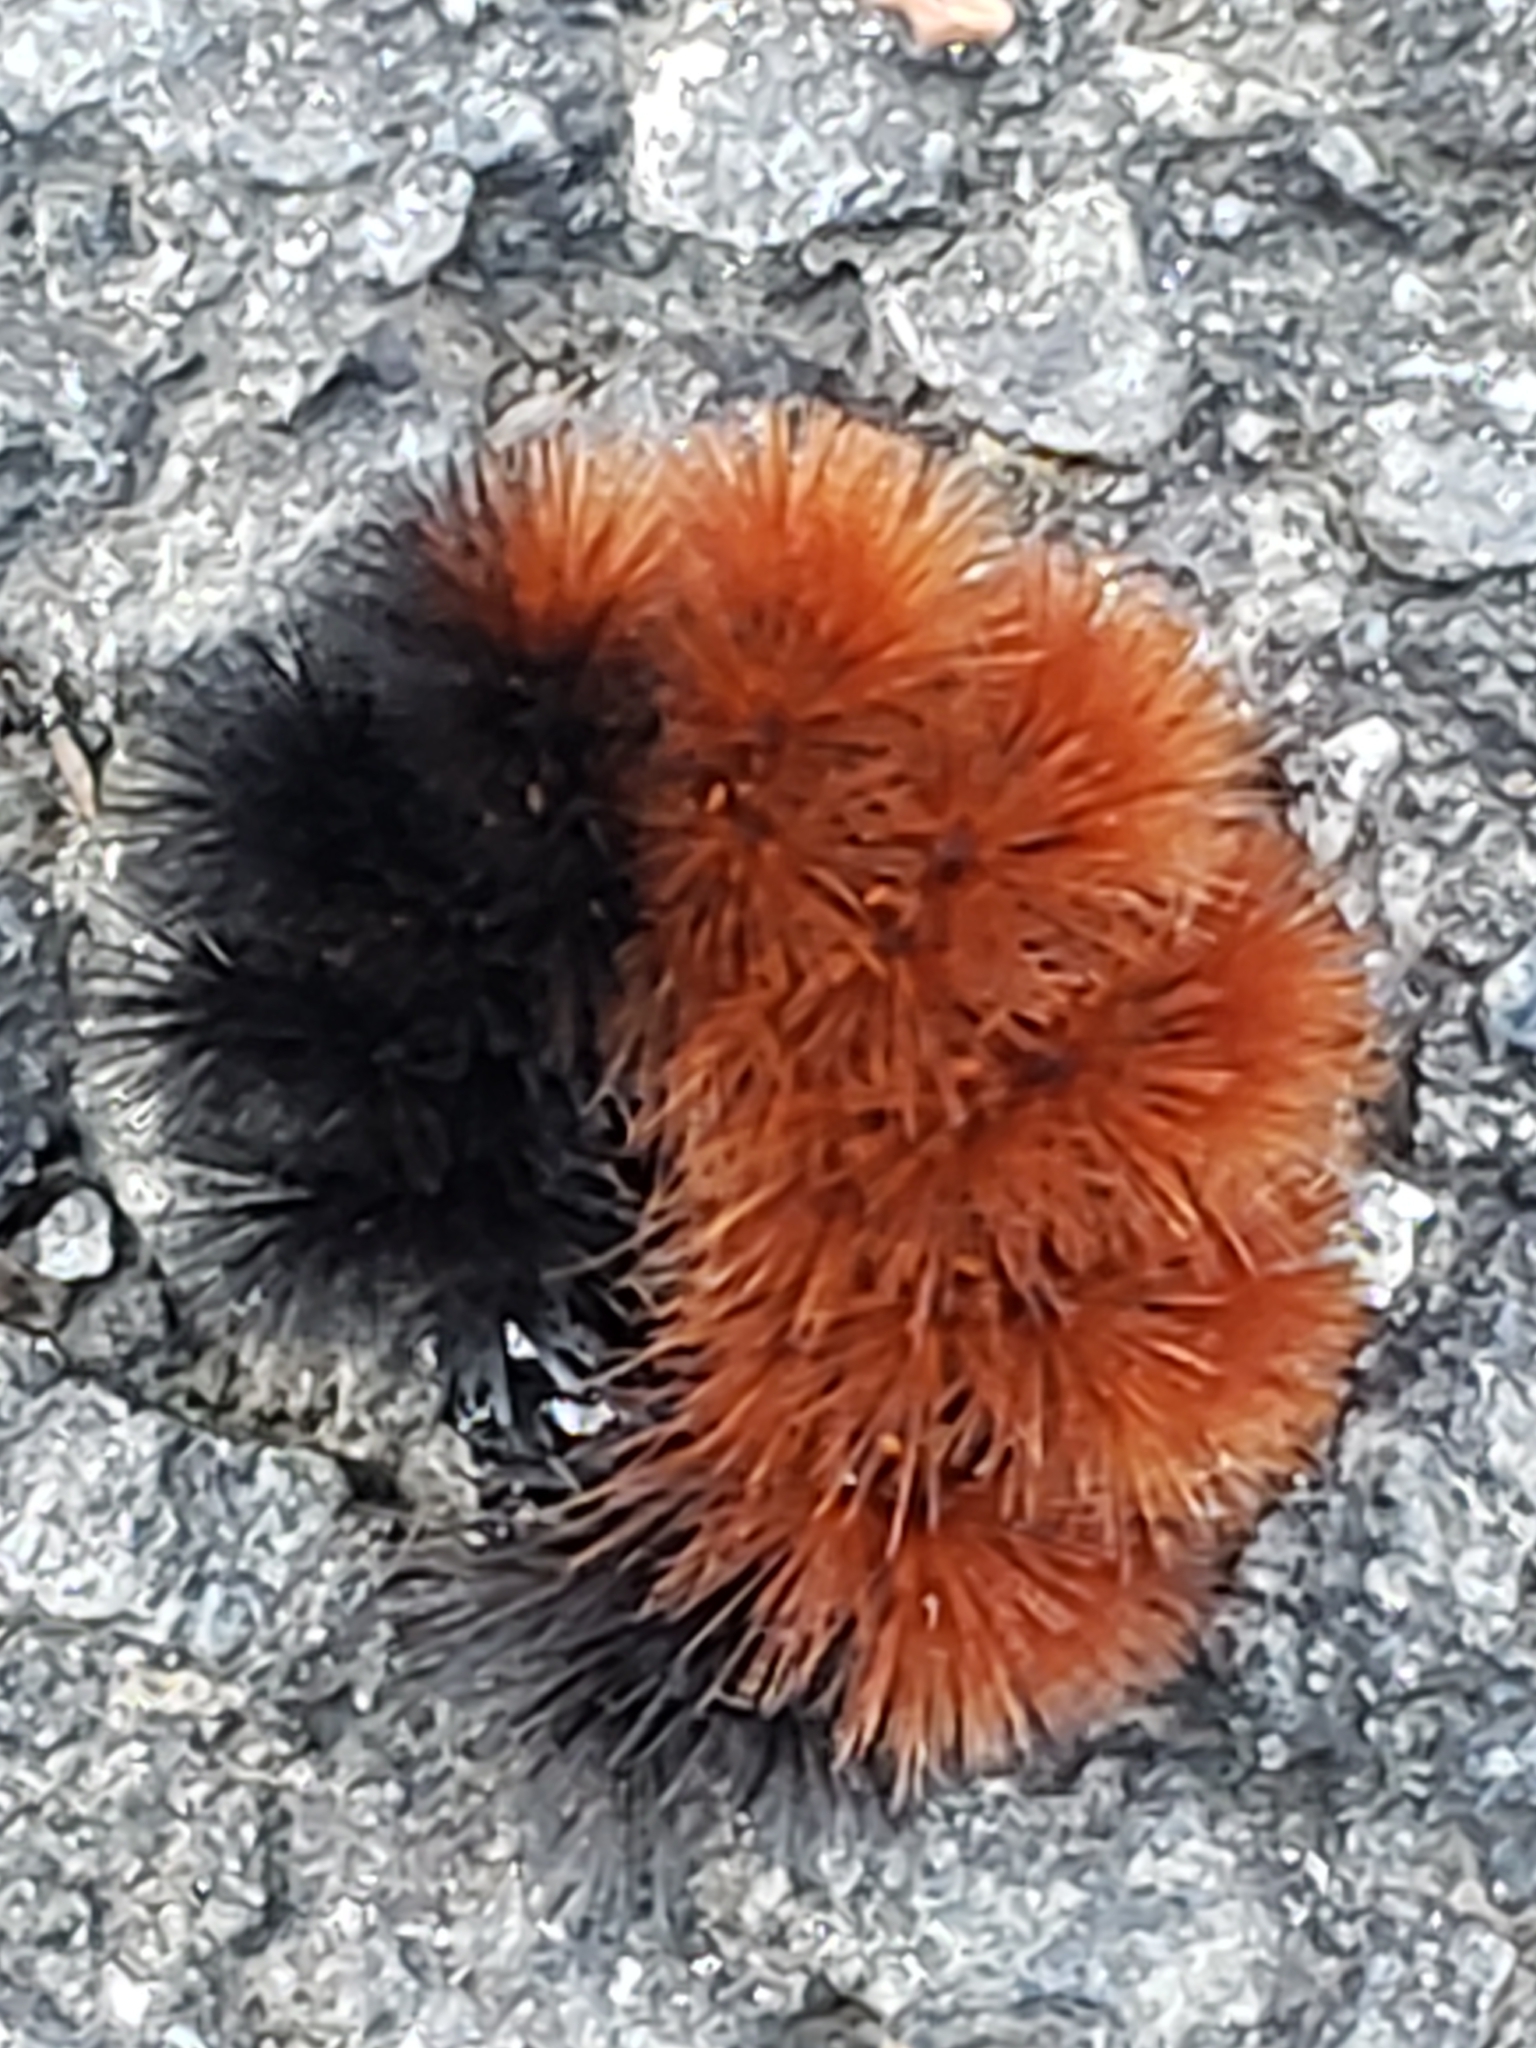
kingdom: Animalia
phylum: Arthropoda
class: Insecta
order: Lepidoptera
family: Erebidae
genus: Pyrrharctia
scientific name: Pyrrharctia isabella
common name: Isabella tiger moth
